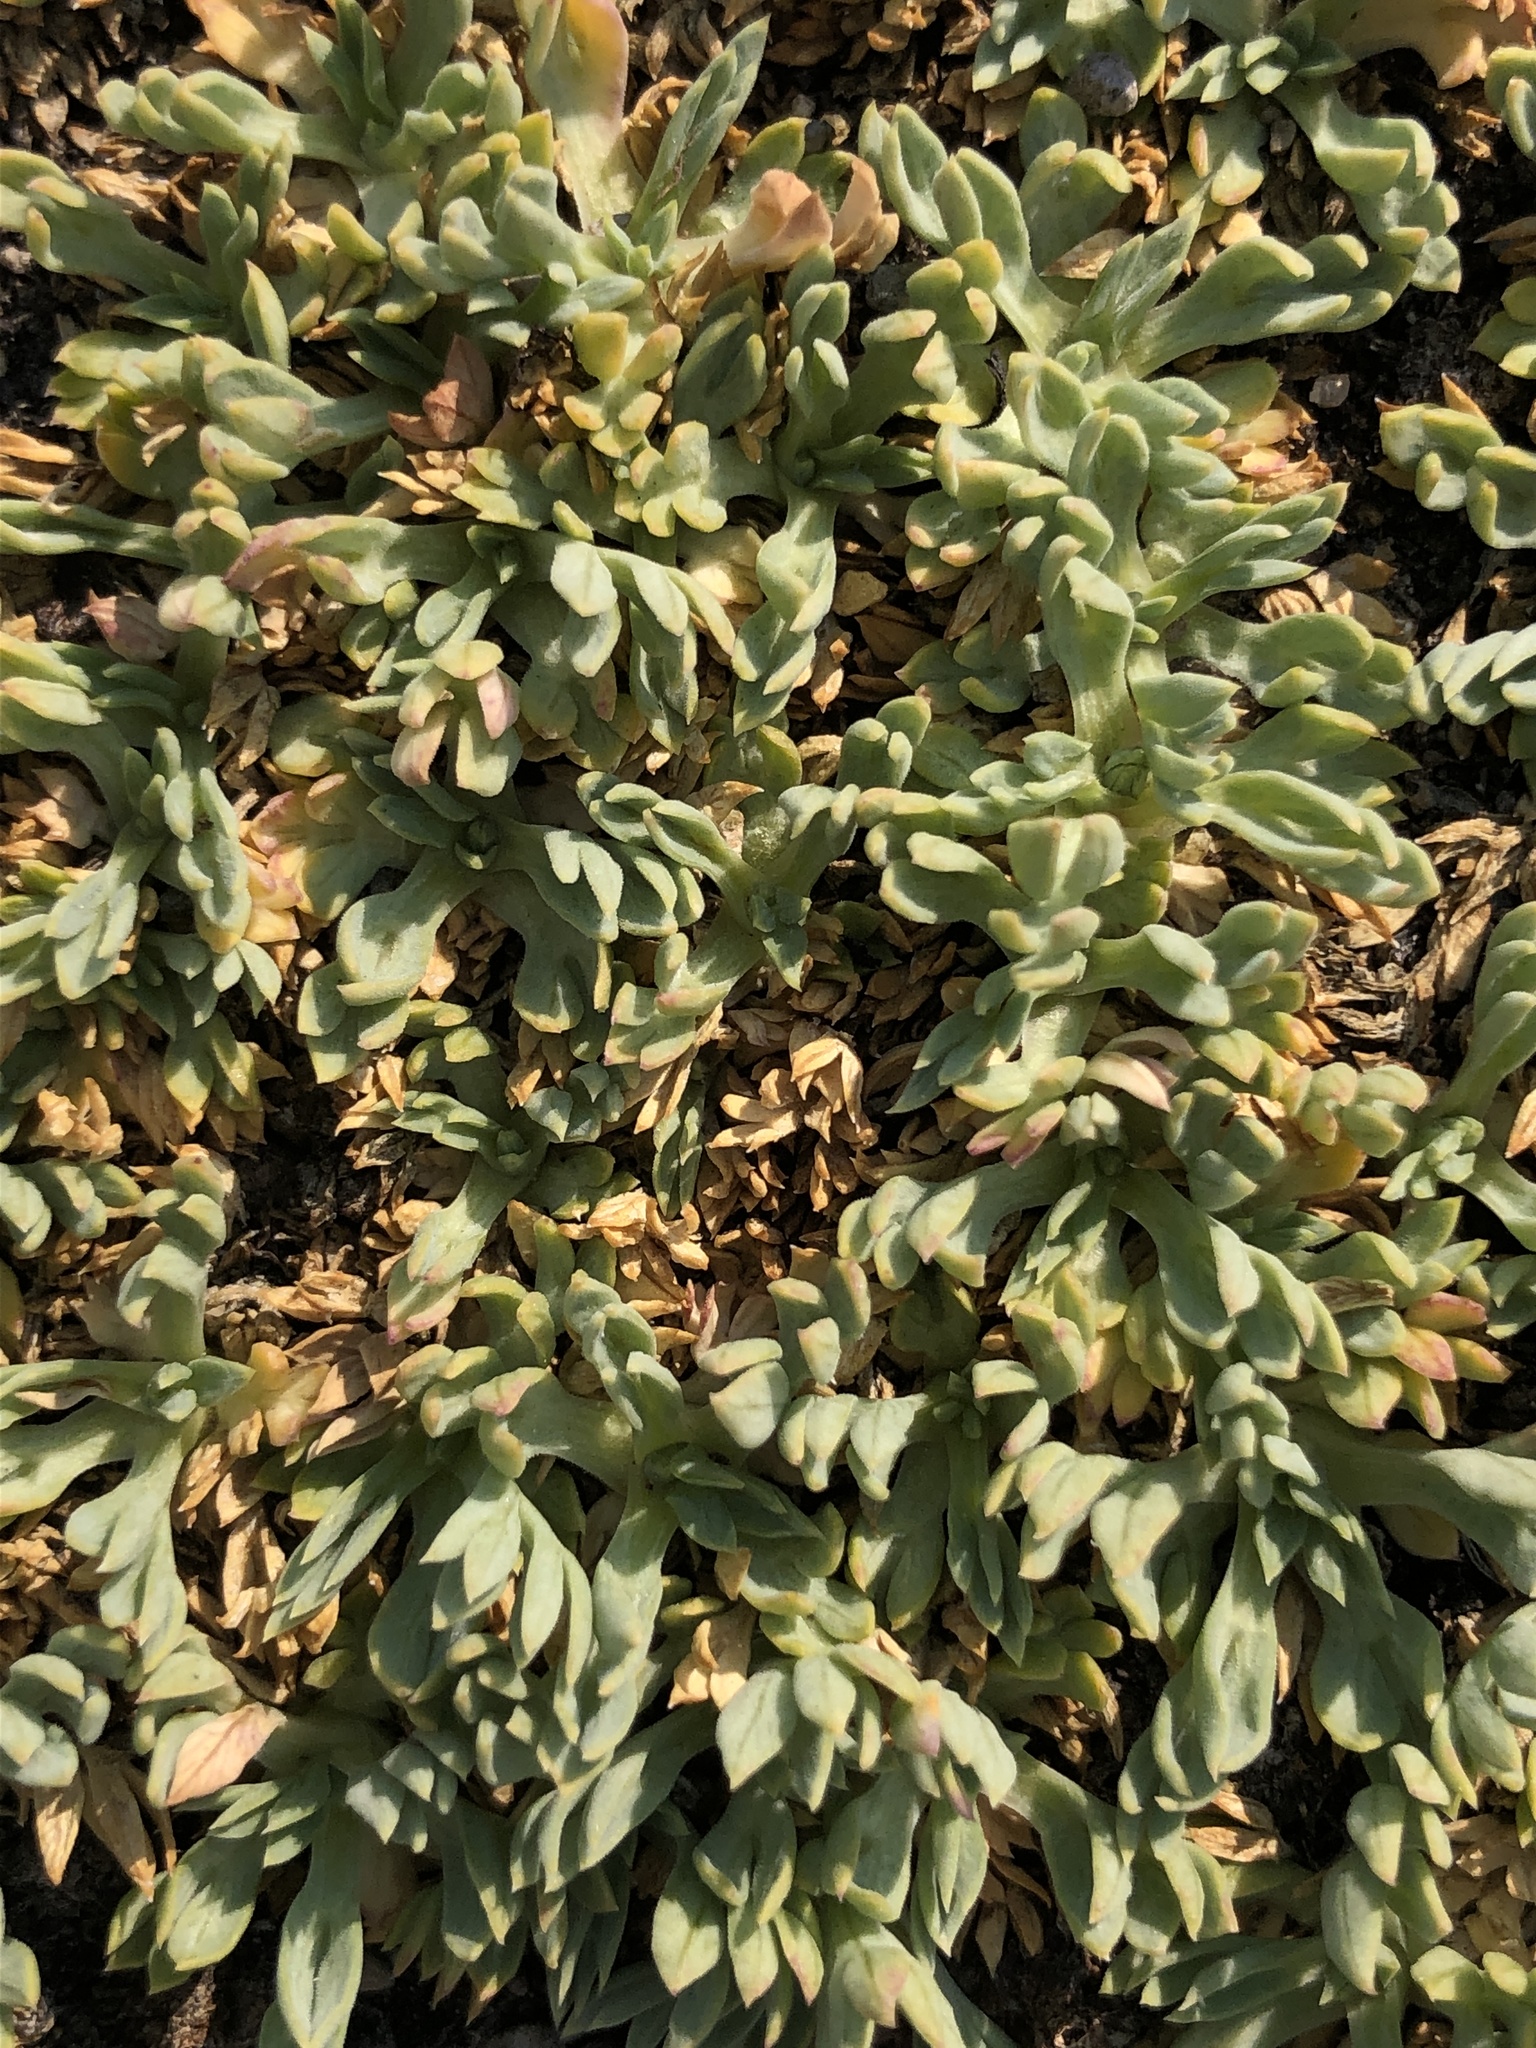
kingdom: Plantae
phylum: Tracheophyta
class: Magnoliopsida
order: Apiales
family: Apiaceae
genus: Podistera
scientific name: Podistera nevadensis
